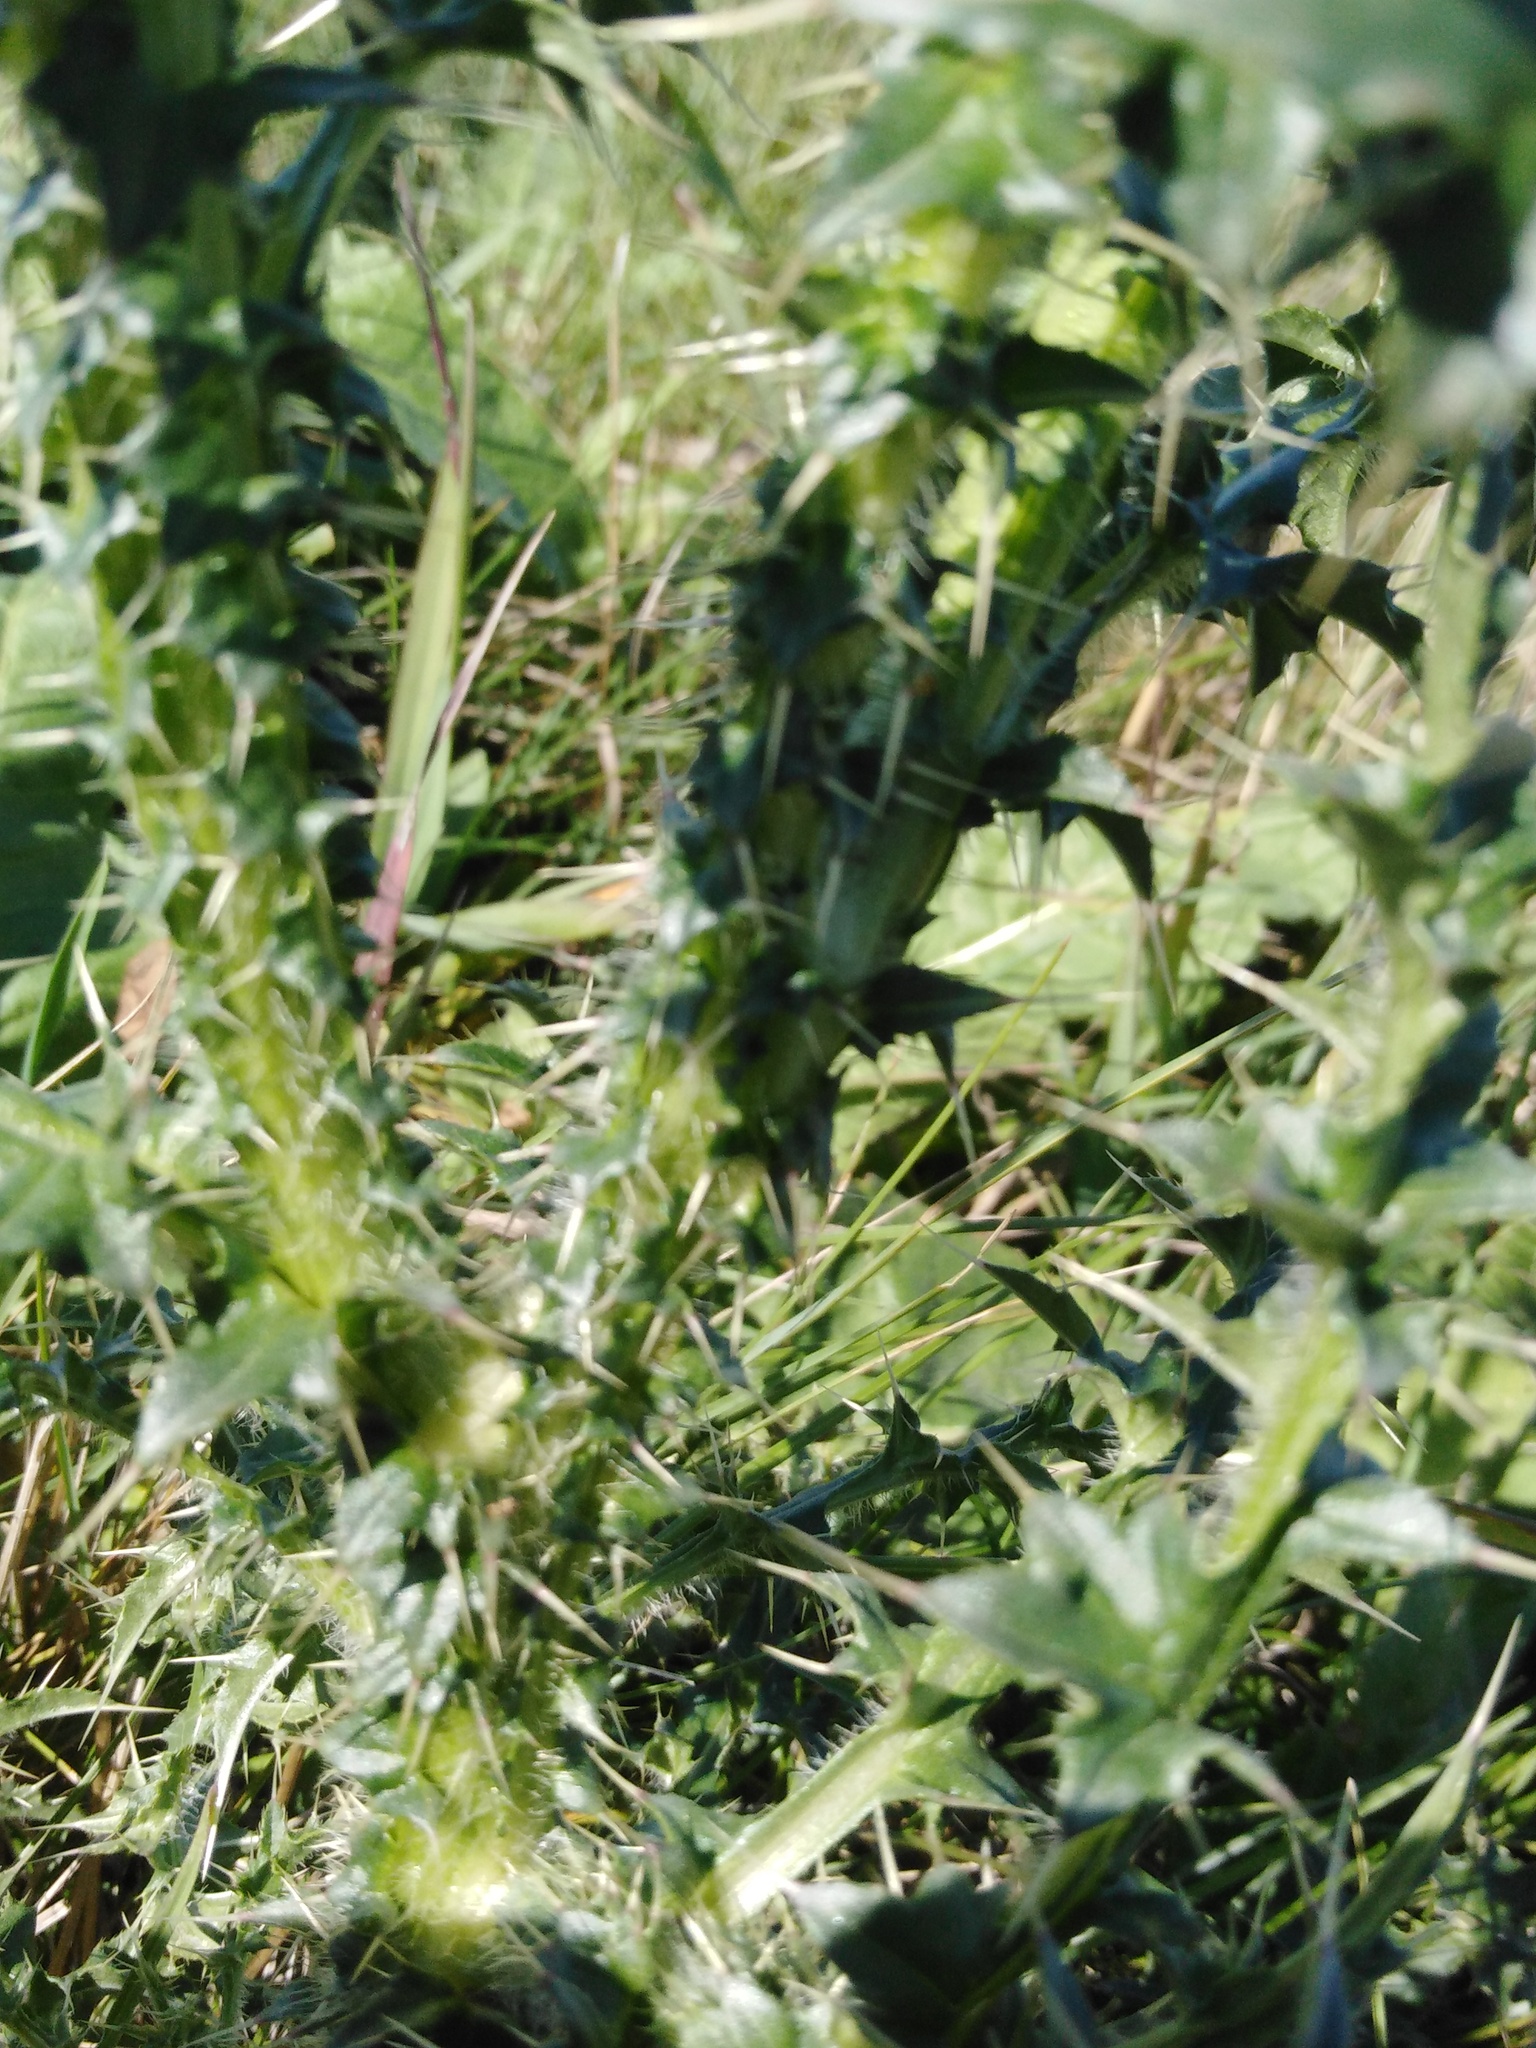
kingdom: Plantae
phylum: Tracheophyta
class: Magnoliopsida
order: Asterales
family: Asteraceae
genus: Carduus
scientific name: Carduus acanthoides
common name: Plumeless thistle
